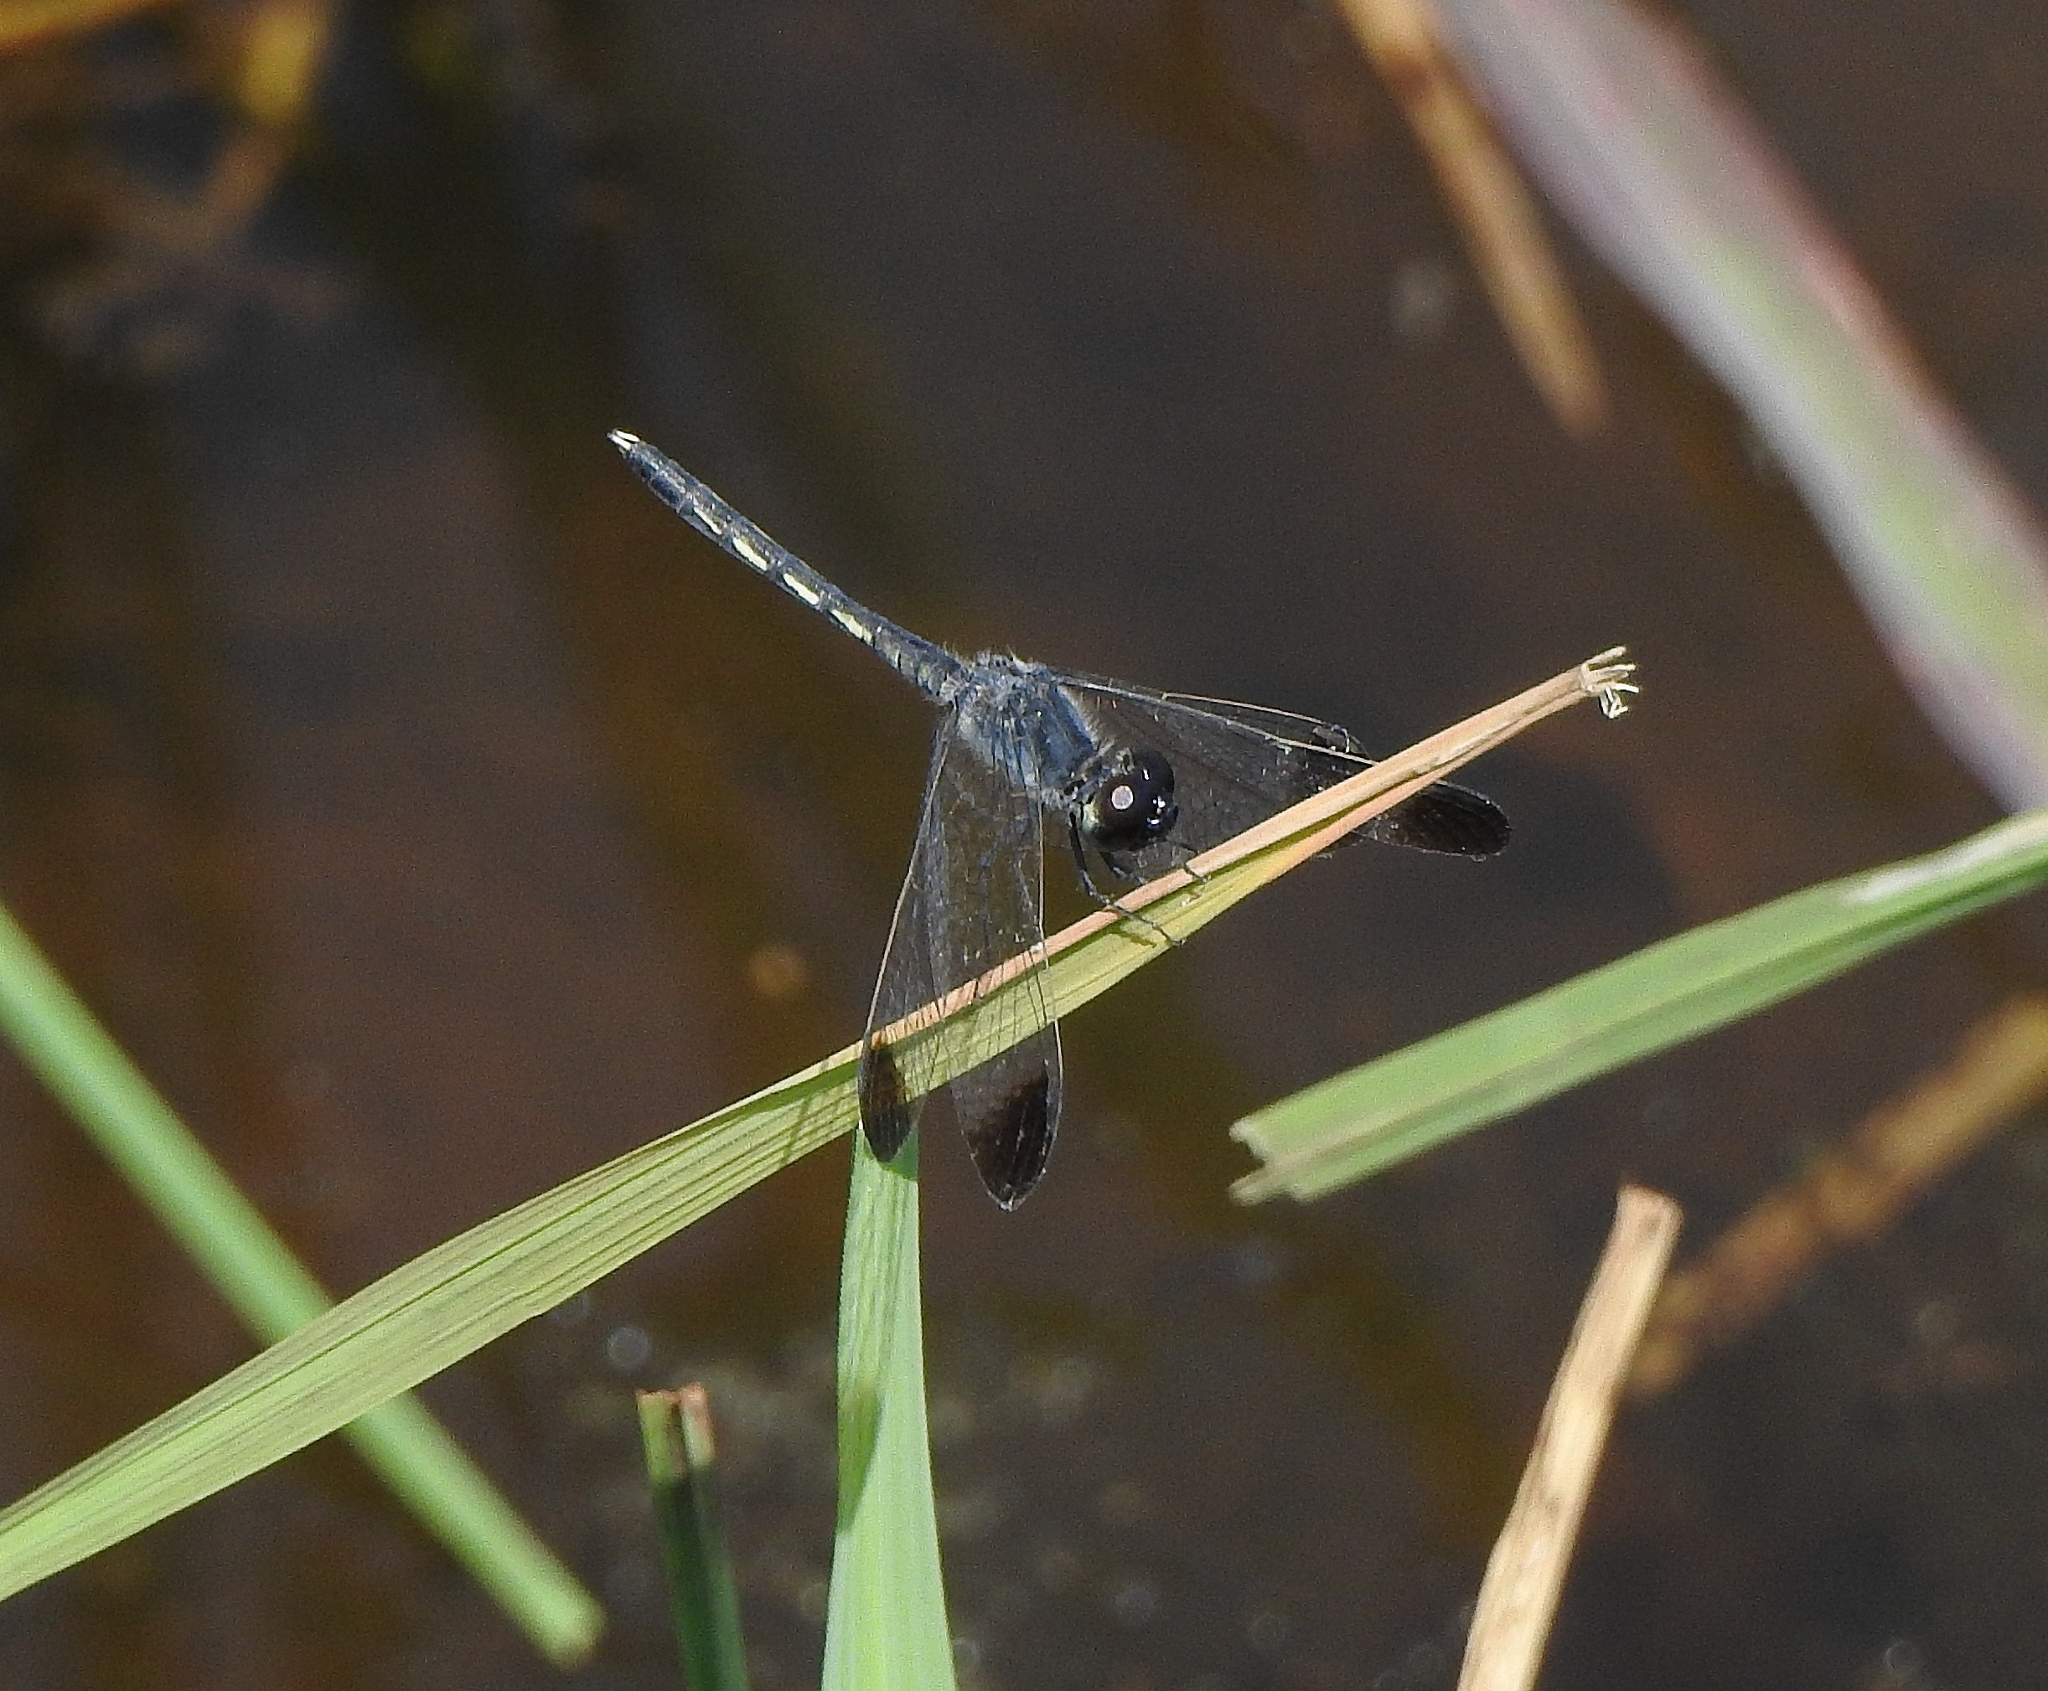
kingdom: Animalia
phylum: Arthropoda
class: Insecta
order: Odonata
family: Libellulidae
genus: Diplacodes
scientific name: Diplacodes nebulosa
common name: Black-tipped percher
